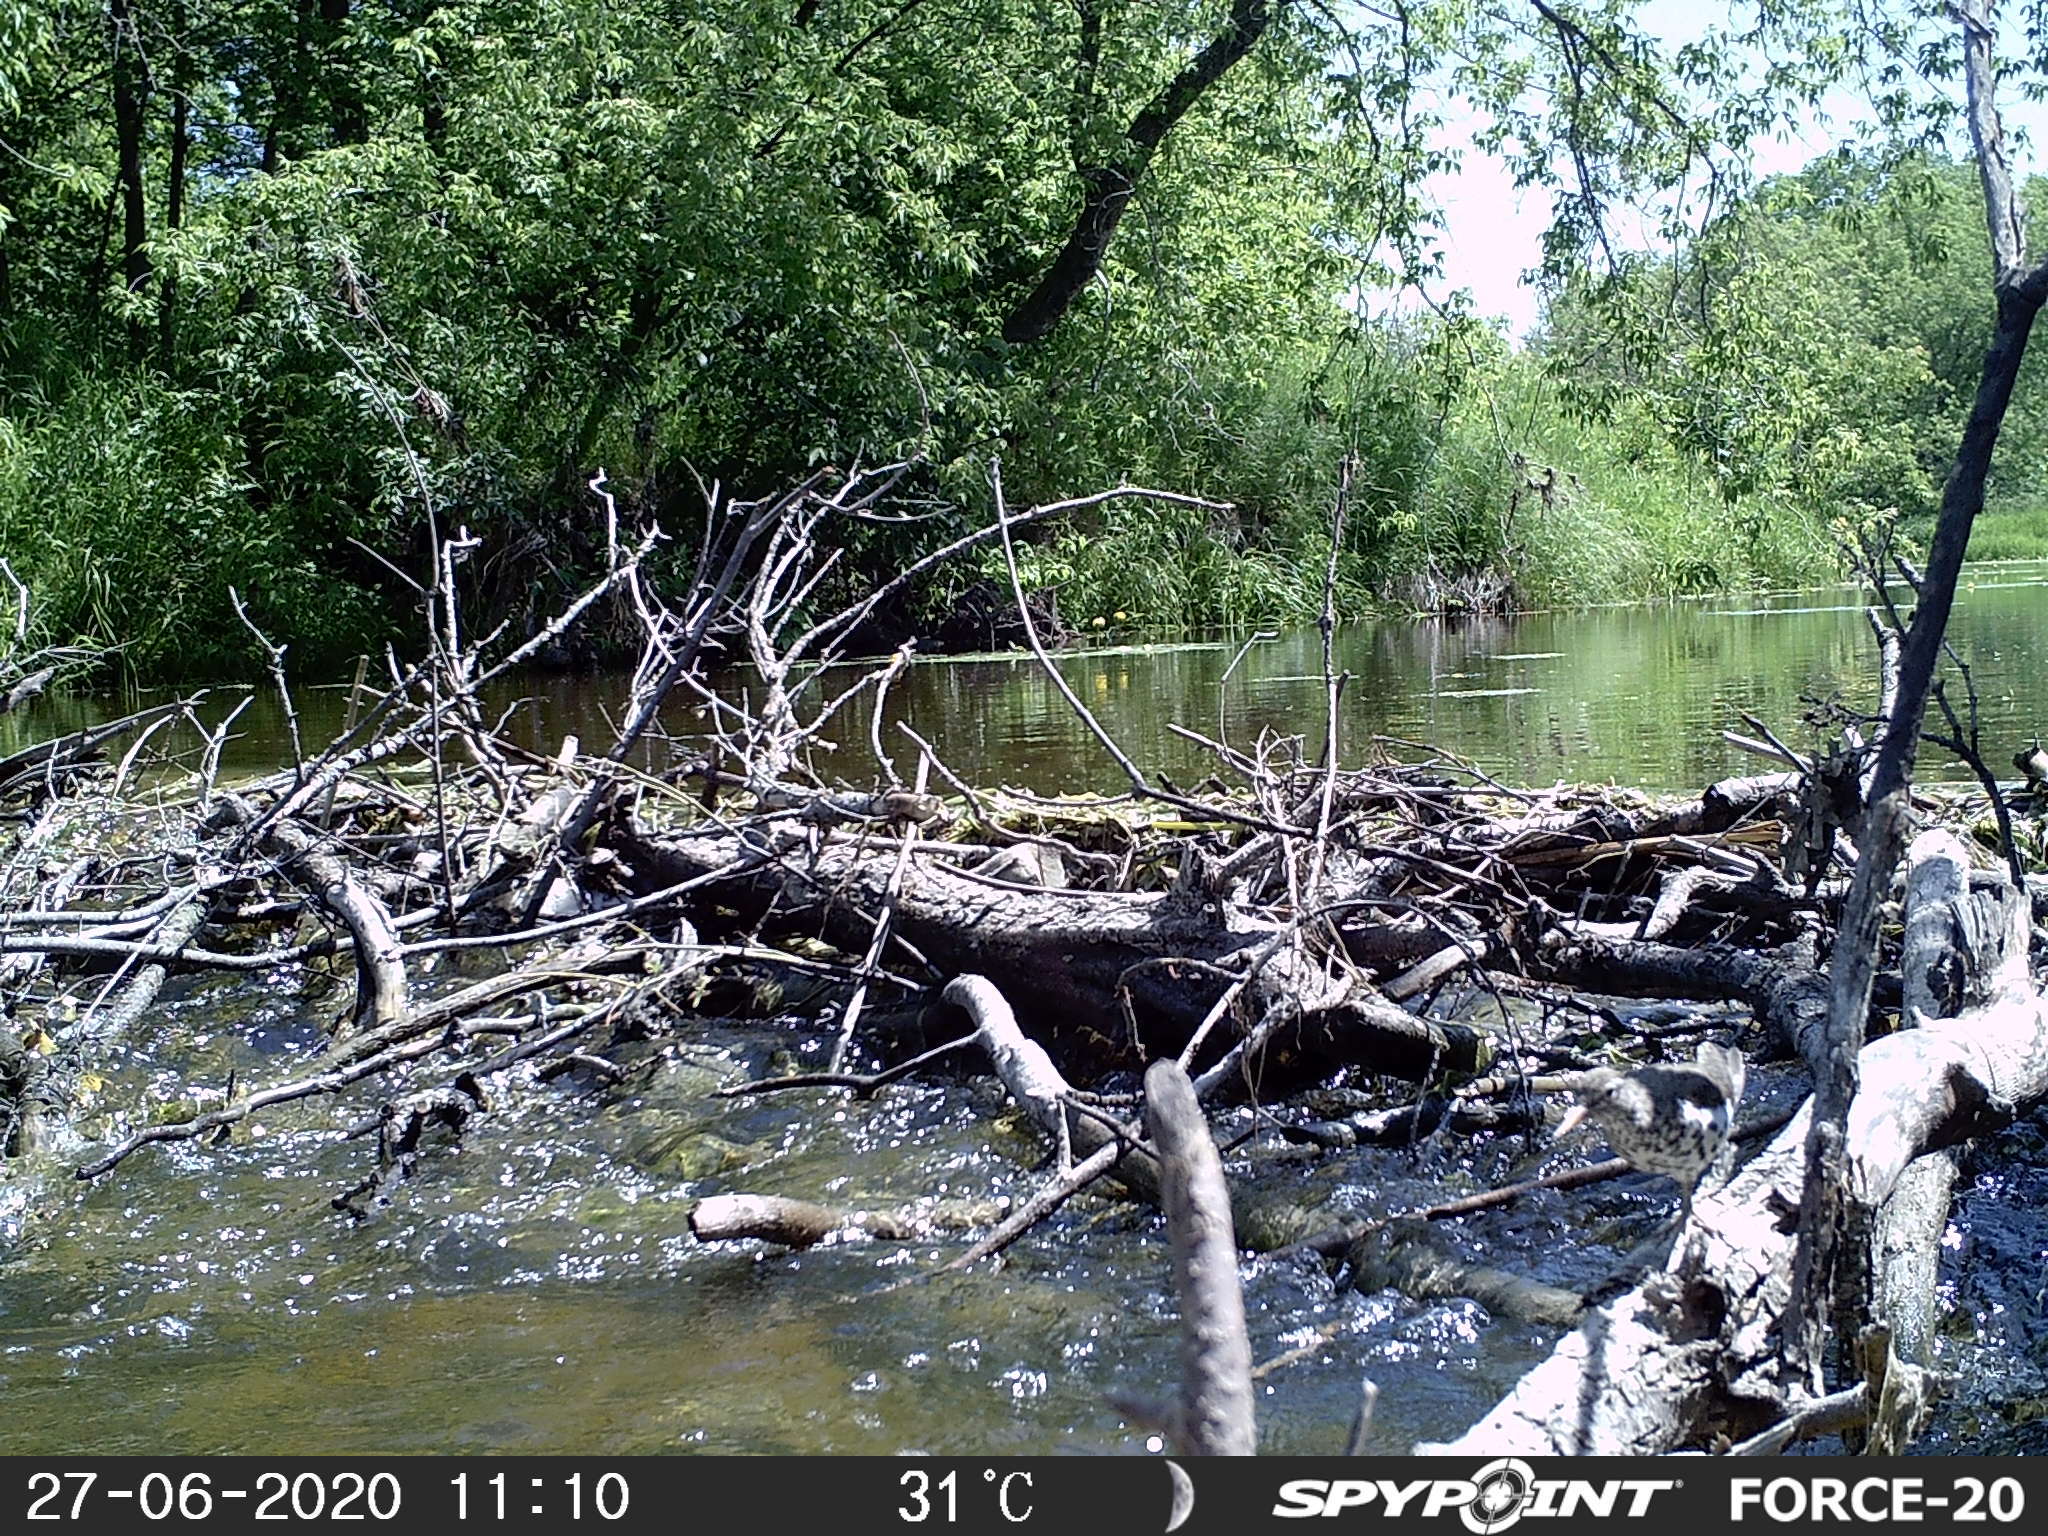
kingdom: Animalia
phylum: Chordata
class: Aves
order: Charadriiformes
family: Scolopacidae
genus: Actitis
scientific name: Actitis macularius
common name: Spotted sandpiper
